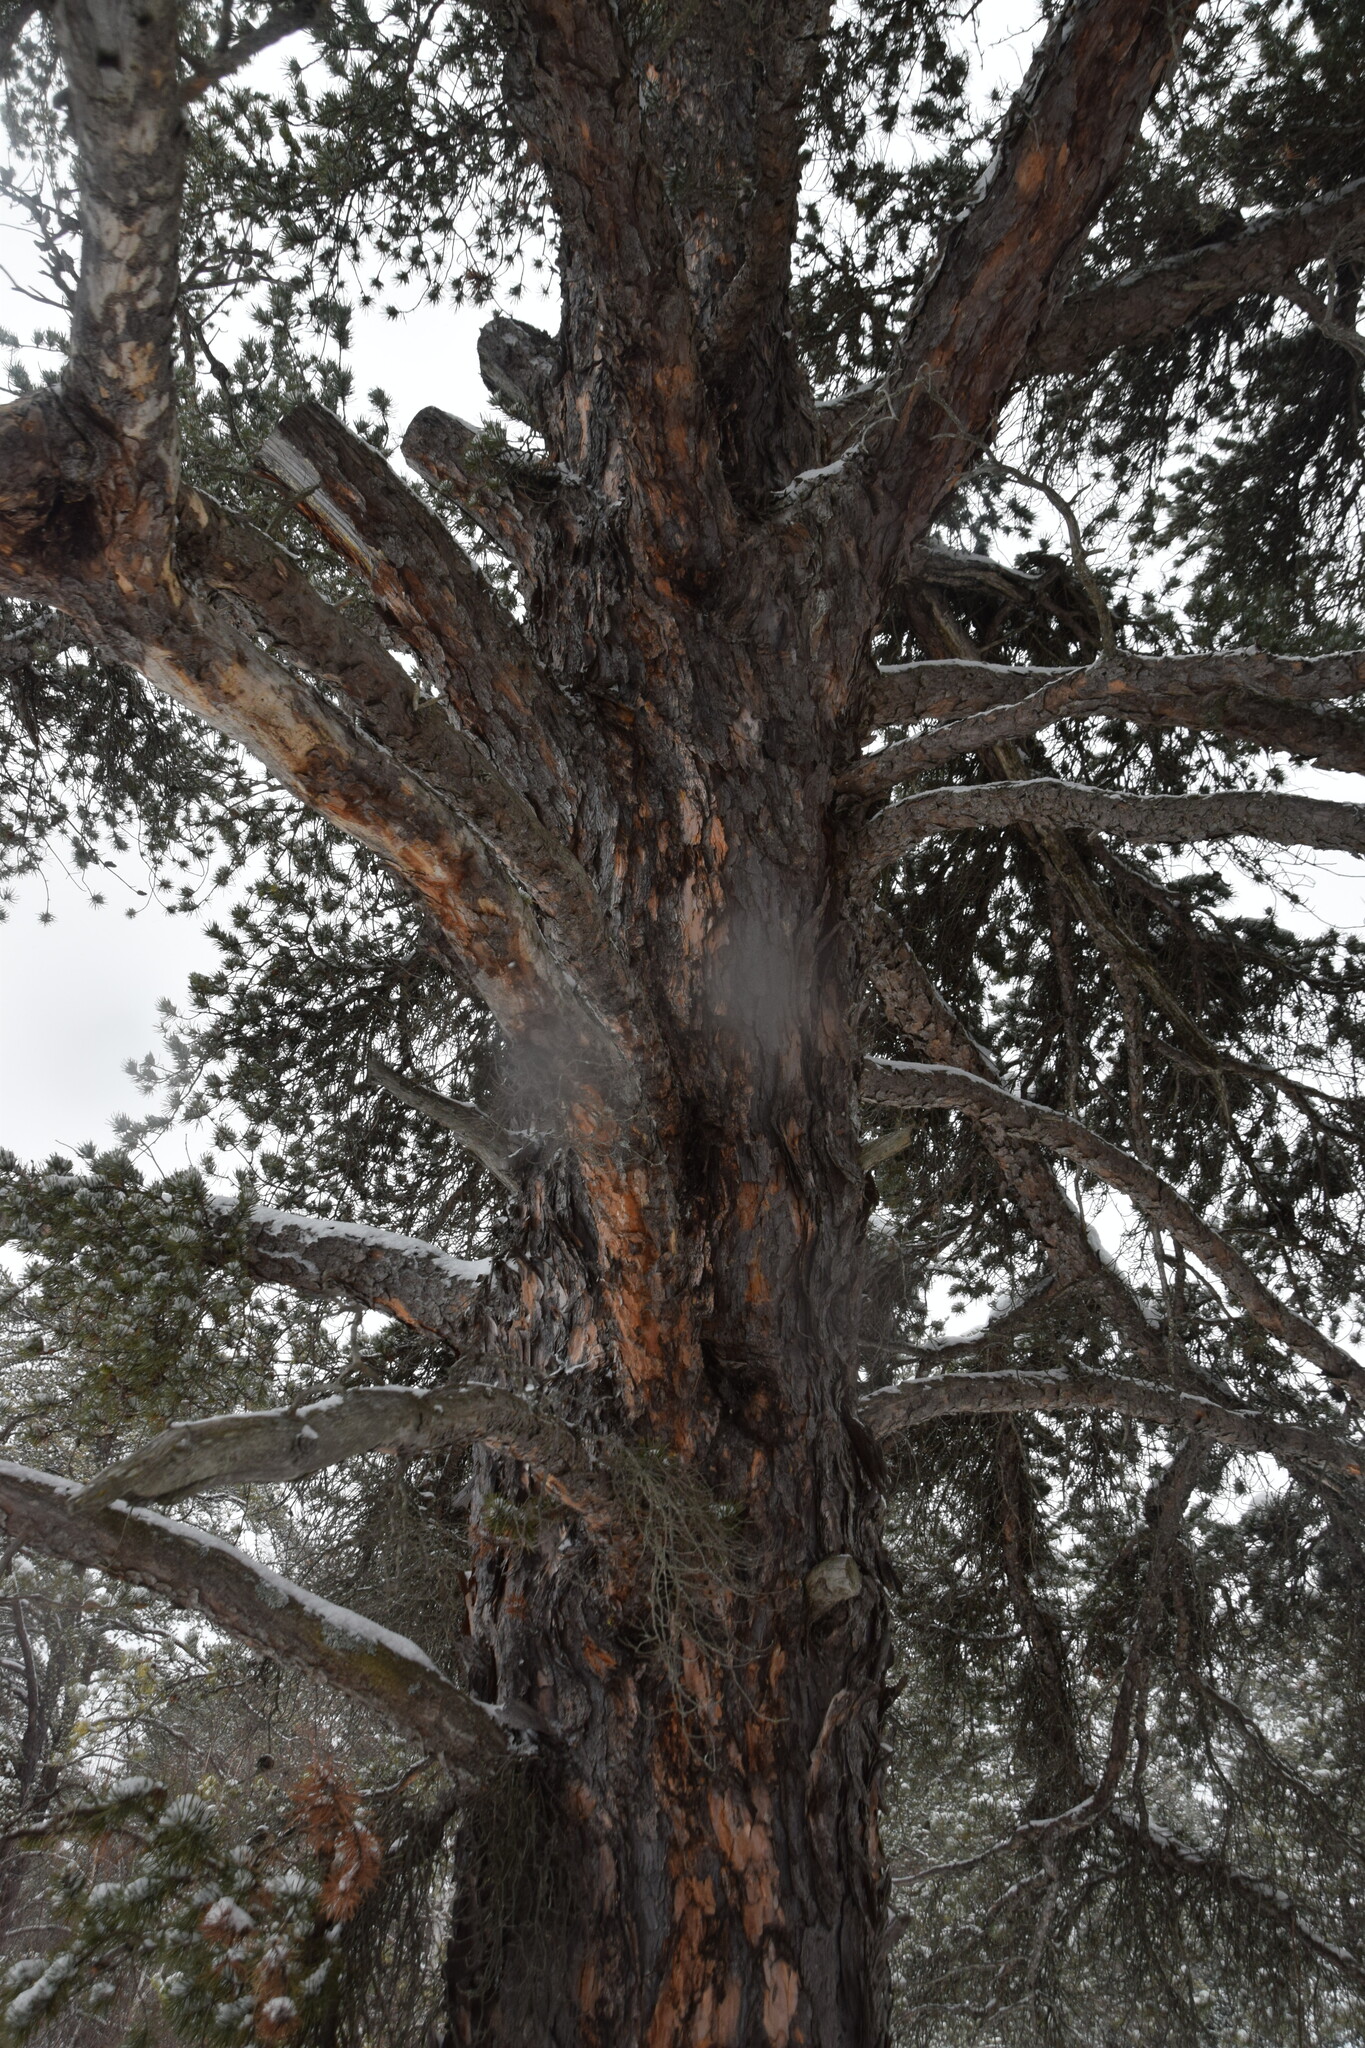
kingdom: Plantae
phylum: Tracheophyta
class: Pinopsida
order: Pinales
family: Pinaceae
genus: Pinus
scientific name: Pinus banksiana
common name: Jack pine
